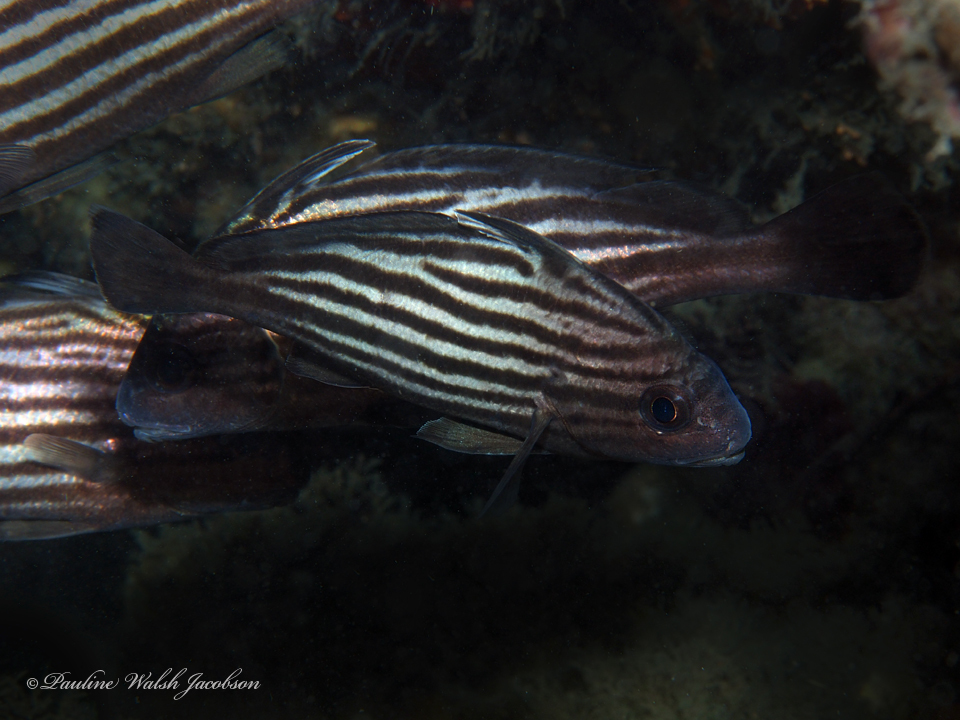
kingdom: Animalia
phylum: Chordata
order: Perciformes
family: Sciaenidae
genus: Pareques
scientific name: Pareques acuminatus
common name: High-hat
